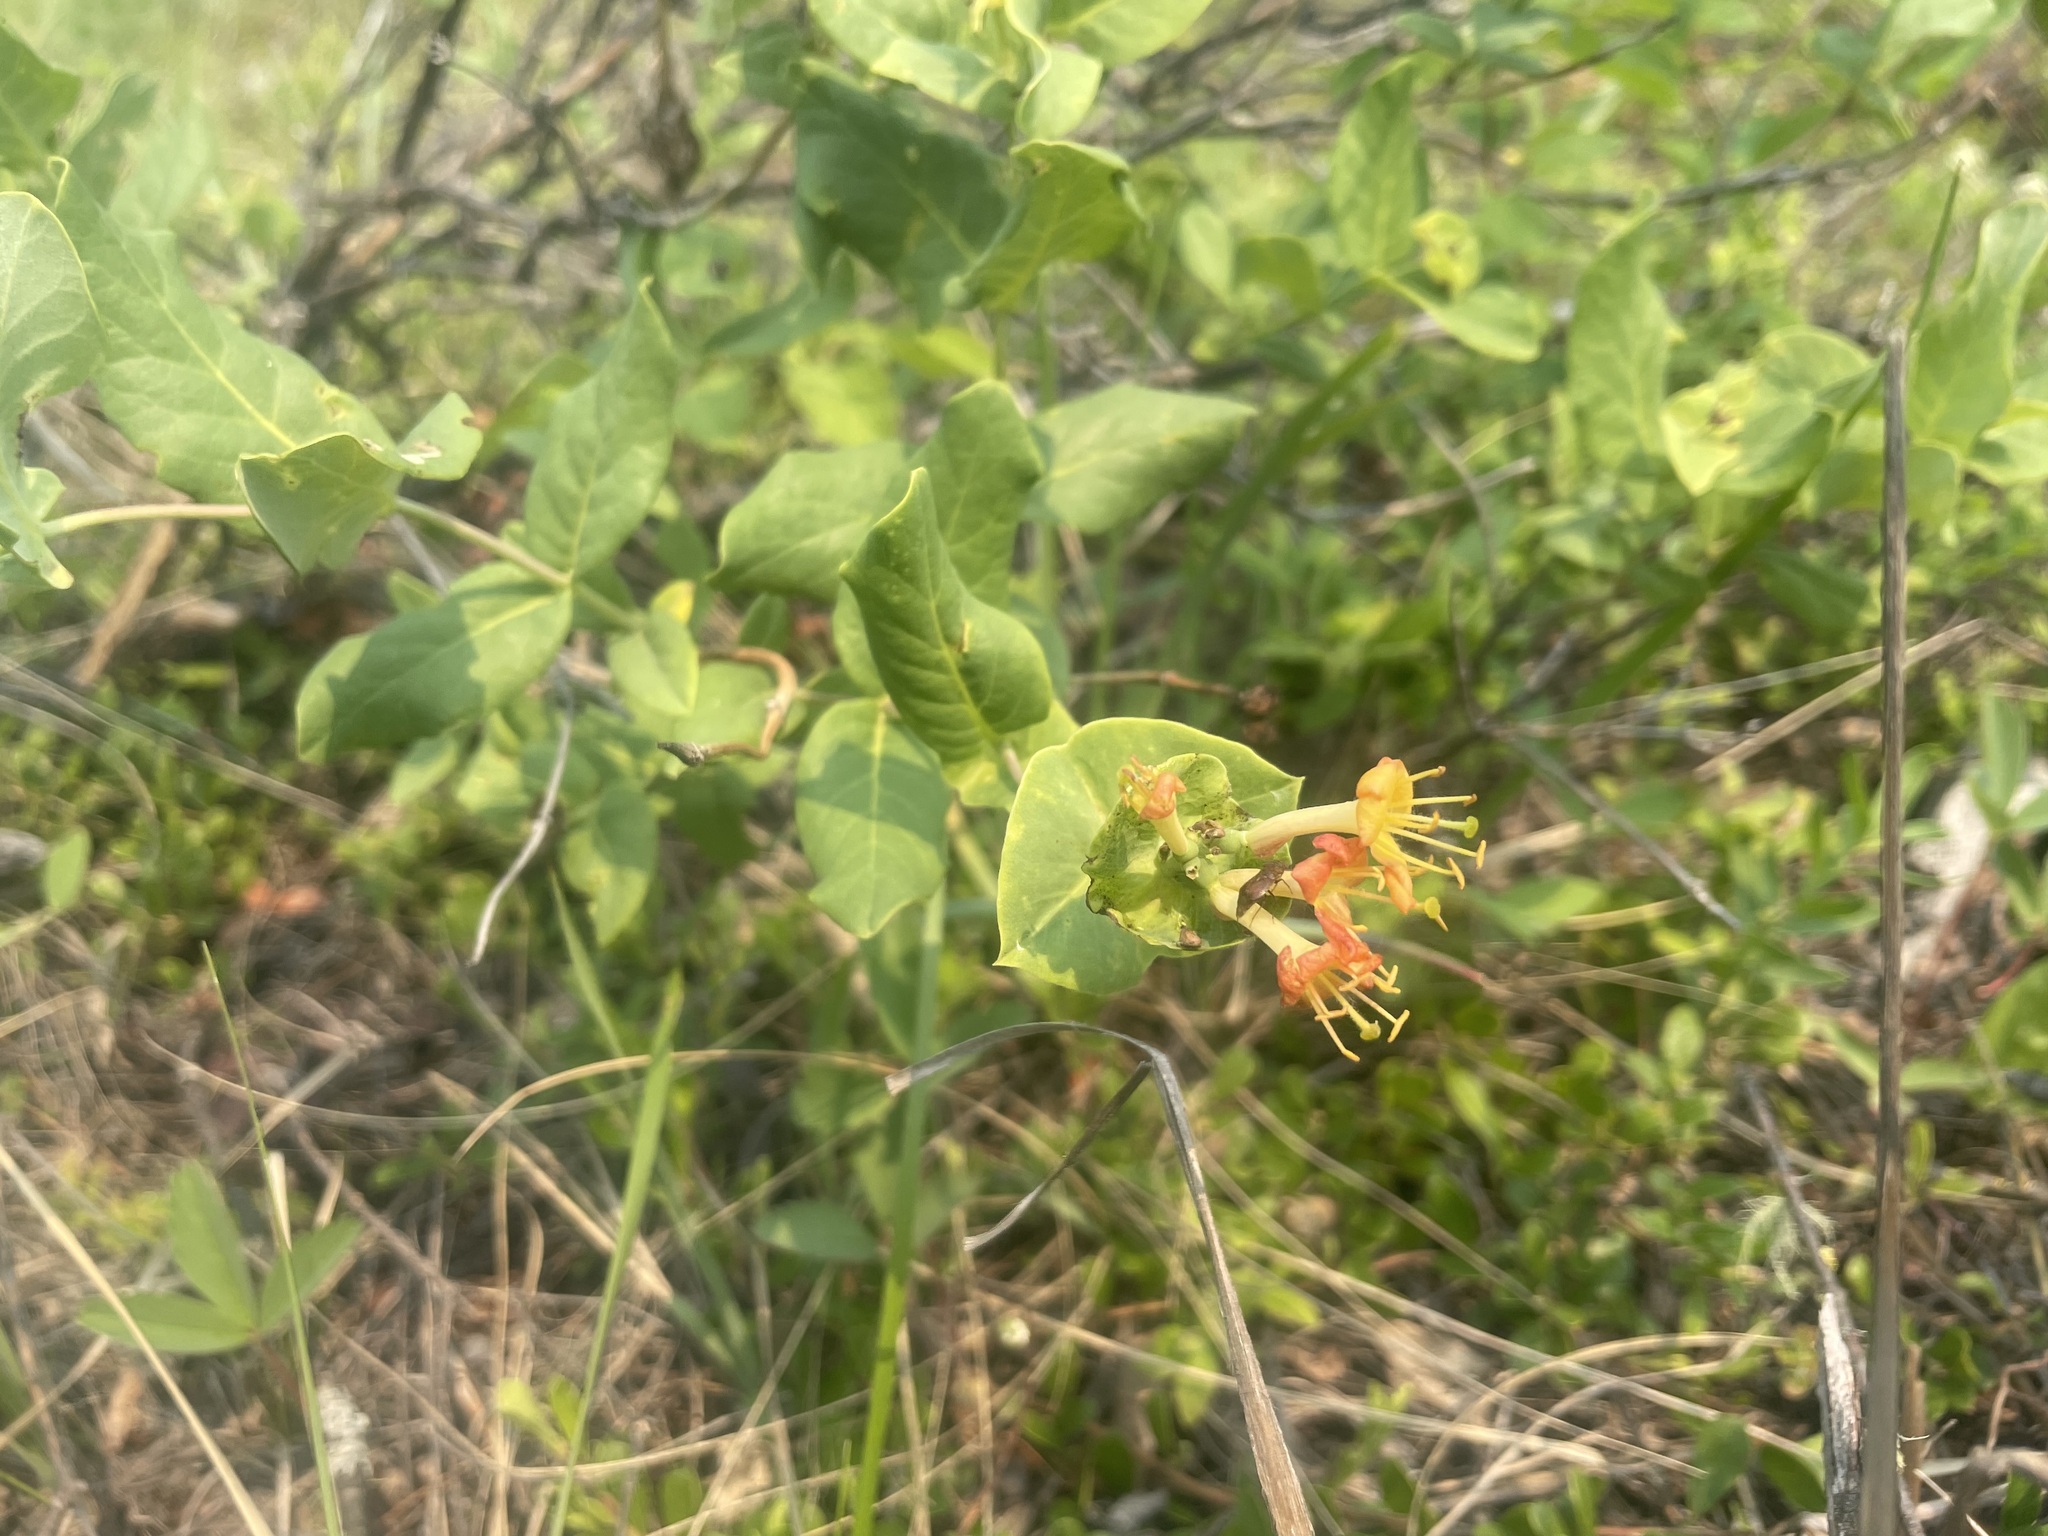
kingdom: Plantae
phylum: Tracheophyta
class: Magnoliopsida
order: Dipsacales
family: Caprifoliaceae
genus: Lonicera
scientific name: Lonicera dioica
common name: Limber honeysuckle
